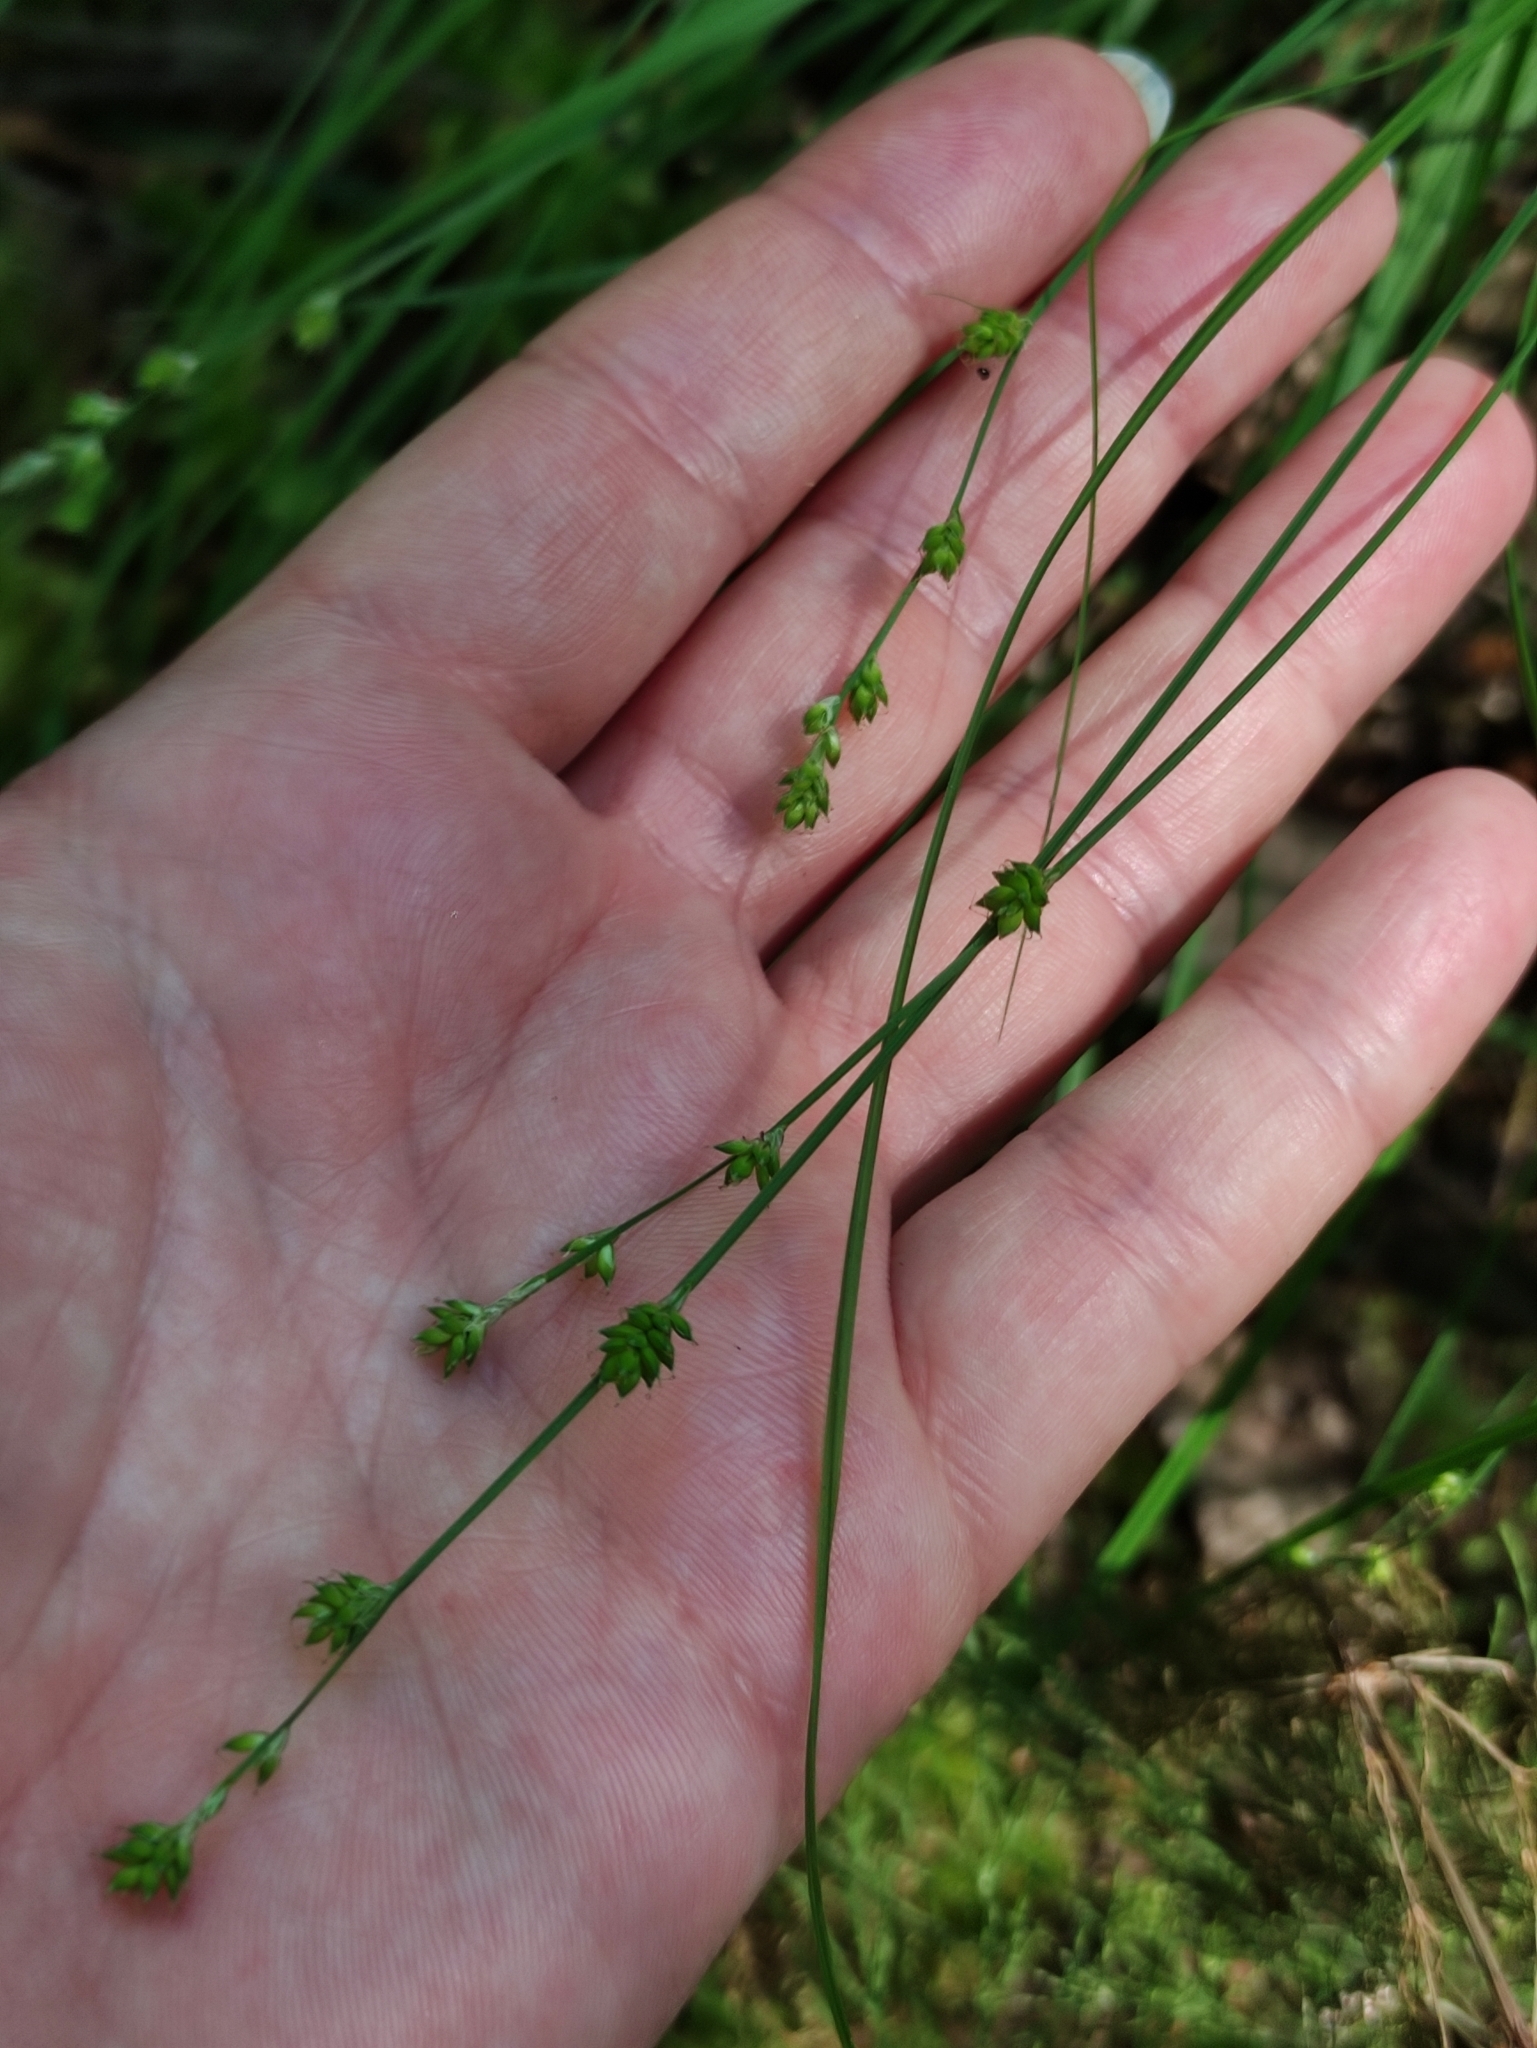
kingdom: Plantae
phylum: Tracheophyta
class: Liliopsida
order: Poales
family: Cyperaceae
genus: Carex
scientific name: Carex canescens
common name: White sedge
